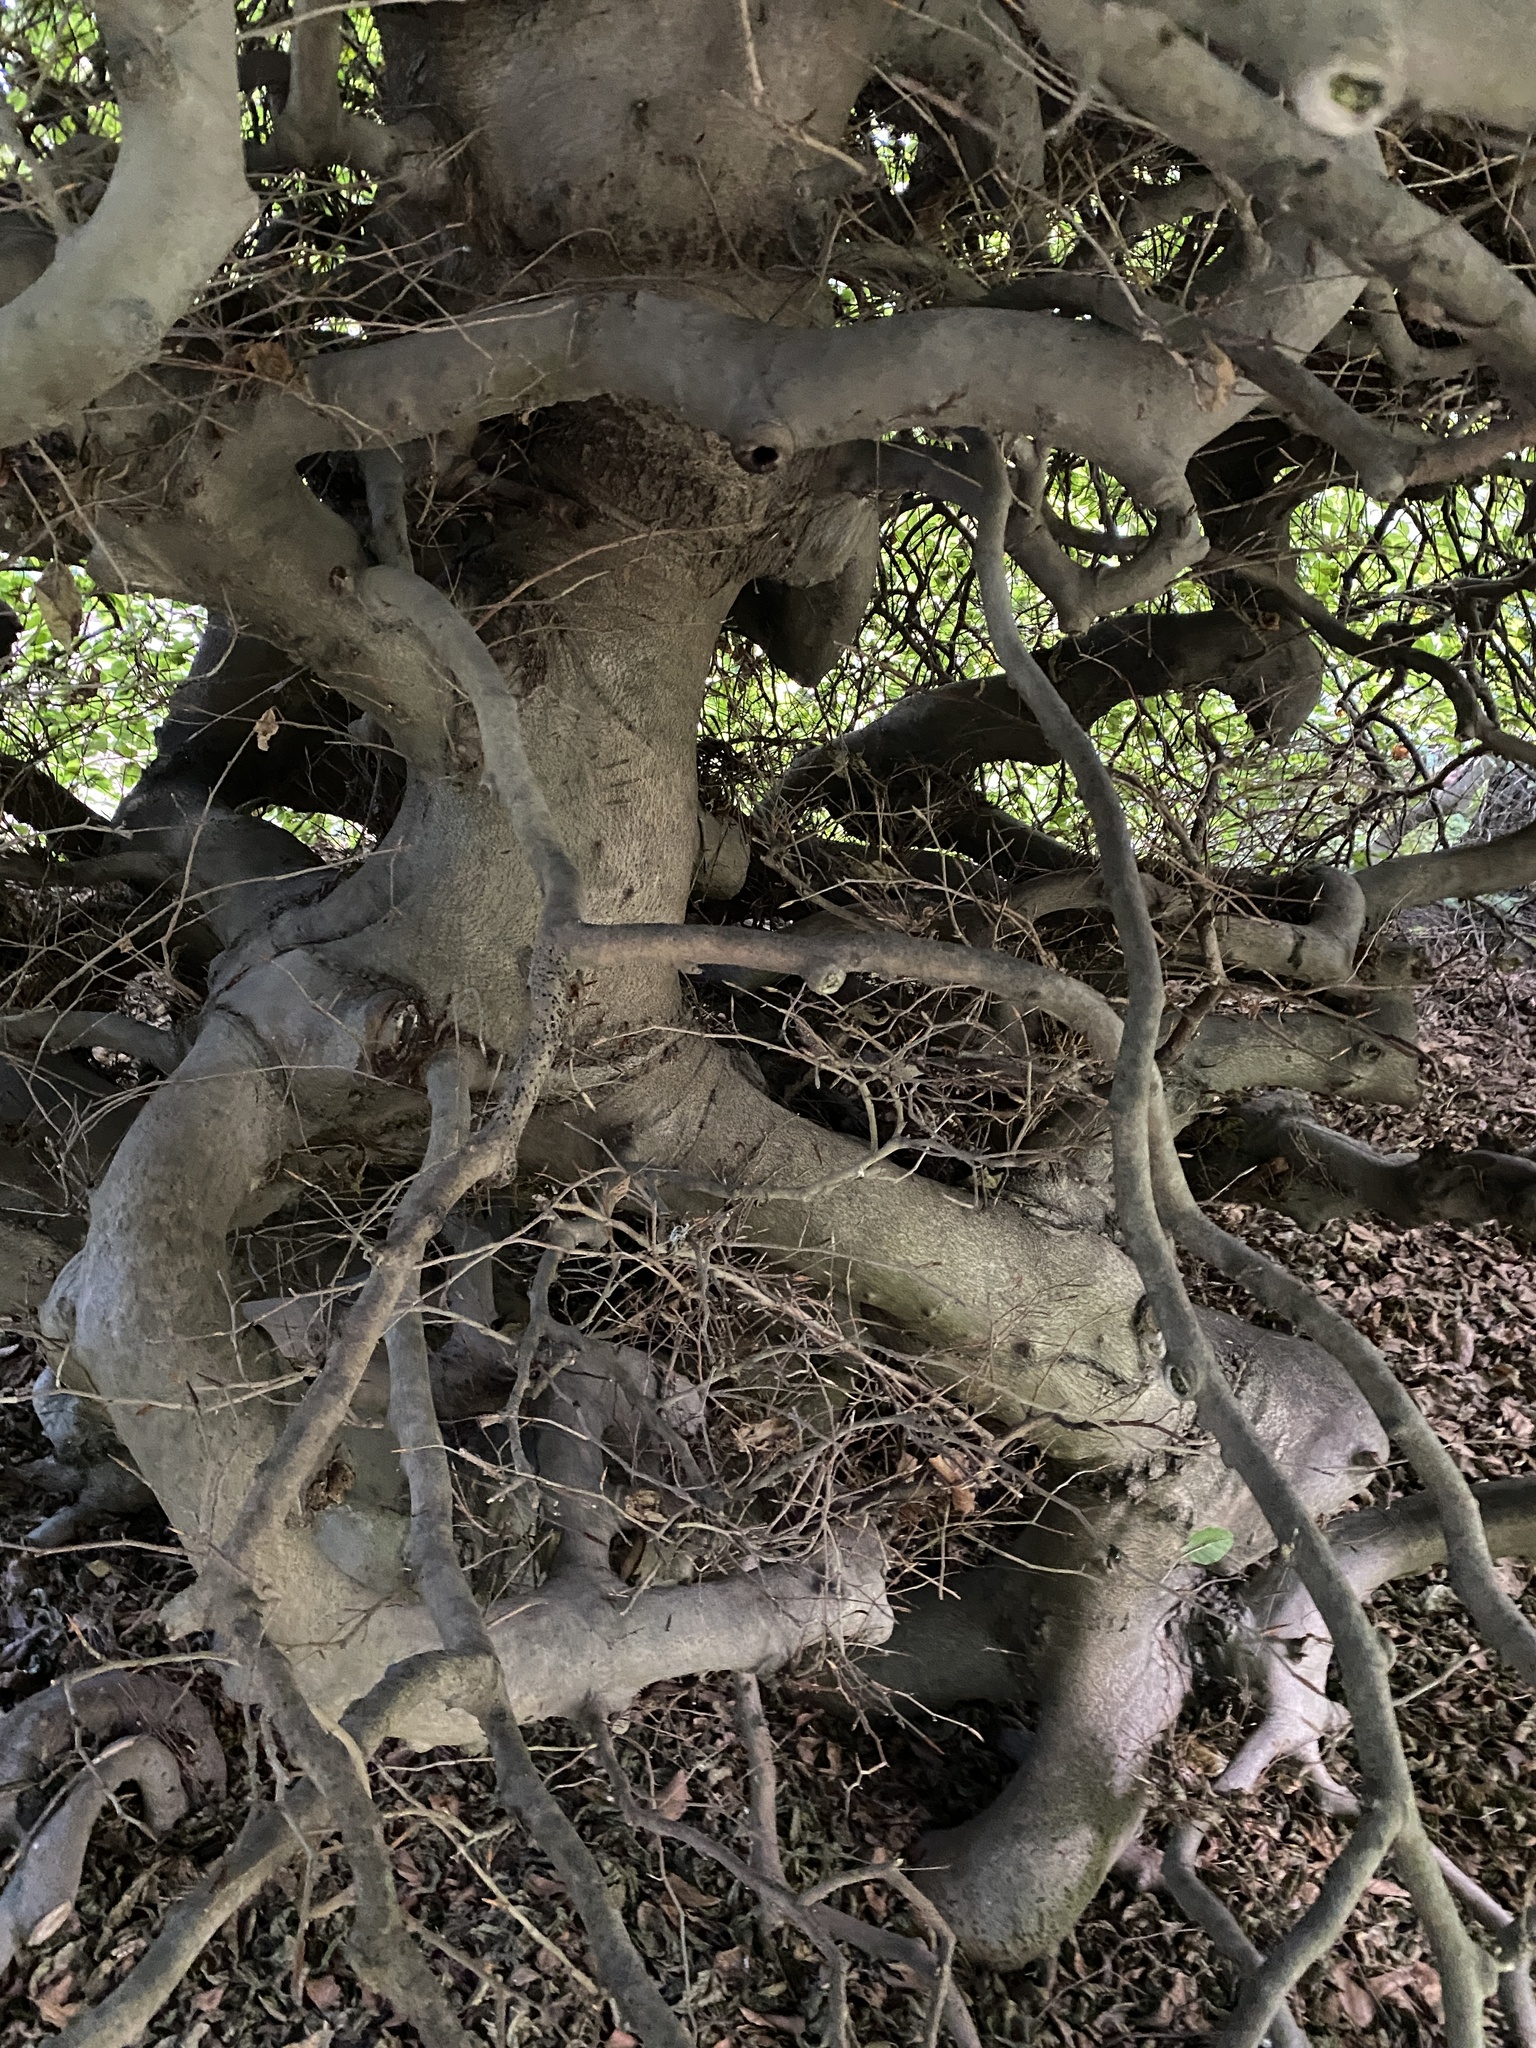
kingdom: Plantae
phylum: Tracheophyta
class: Magnoliopsida
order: Fagales
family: Fagaceae
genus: Fagus
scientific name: Fagus sylvatica
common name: Beech
